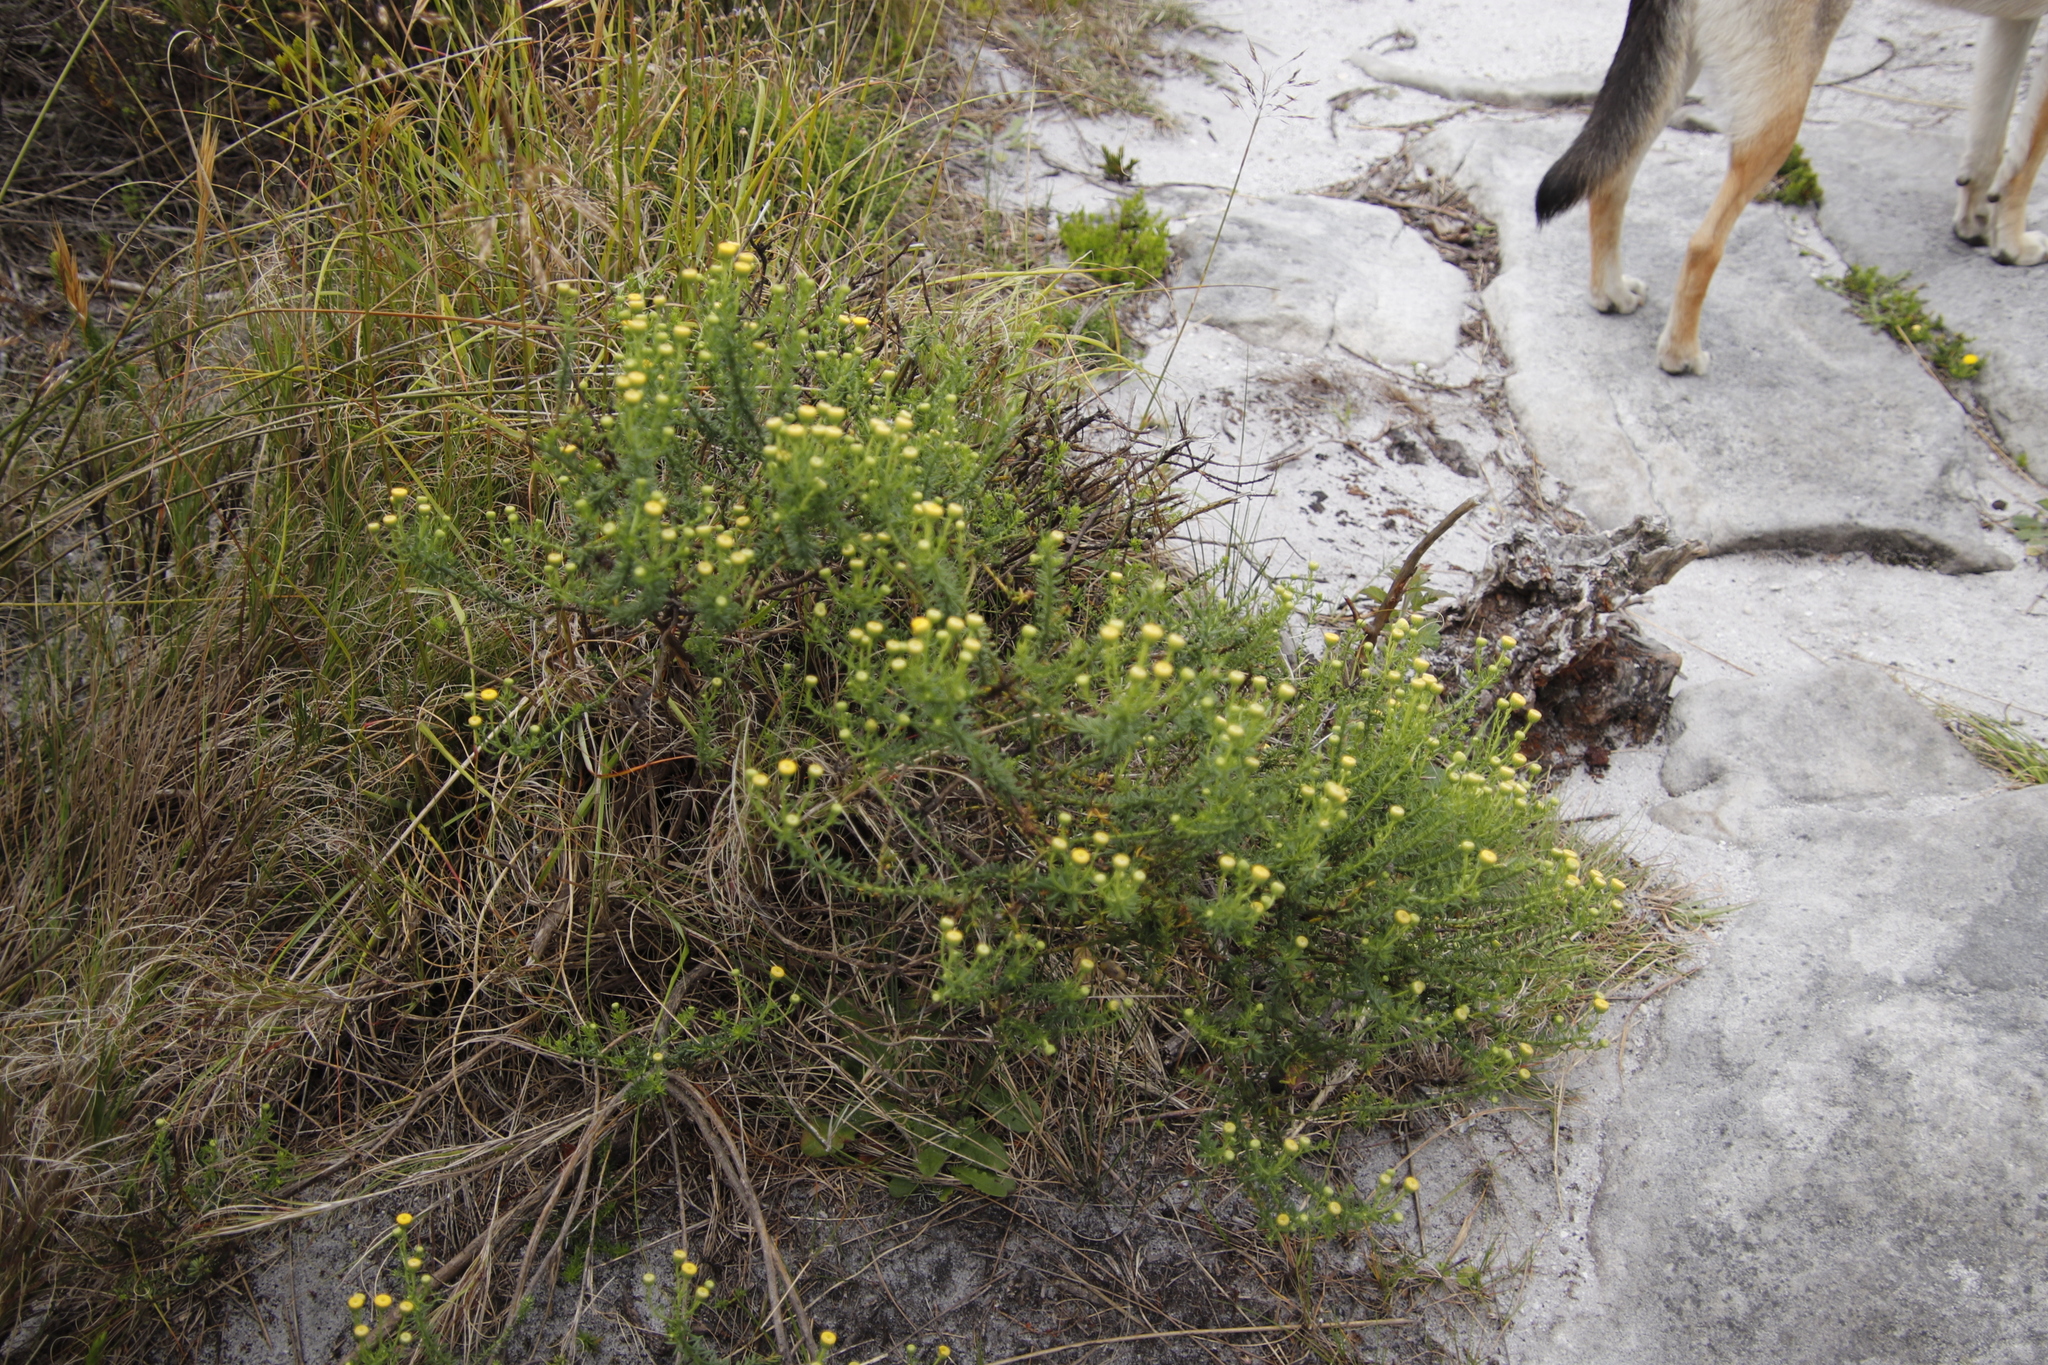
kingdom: Plantae
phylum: Tracheophyta
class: Magnoliopsida
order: Asterales
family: Asteraceae
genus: Chrysocoma
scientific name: Chrysocoma cernua
